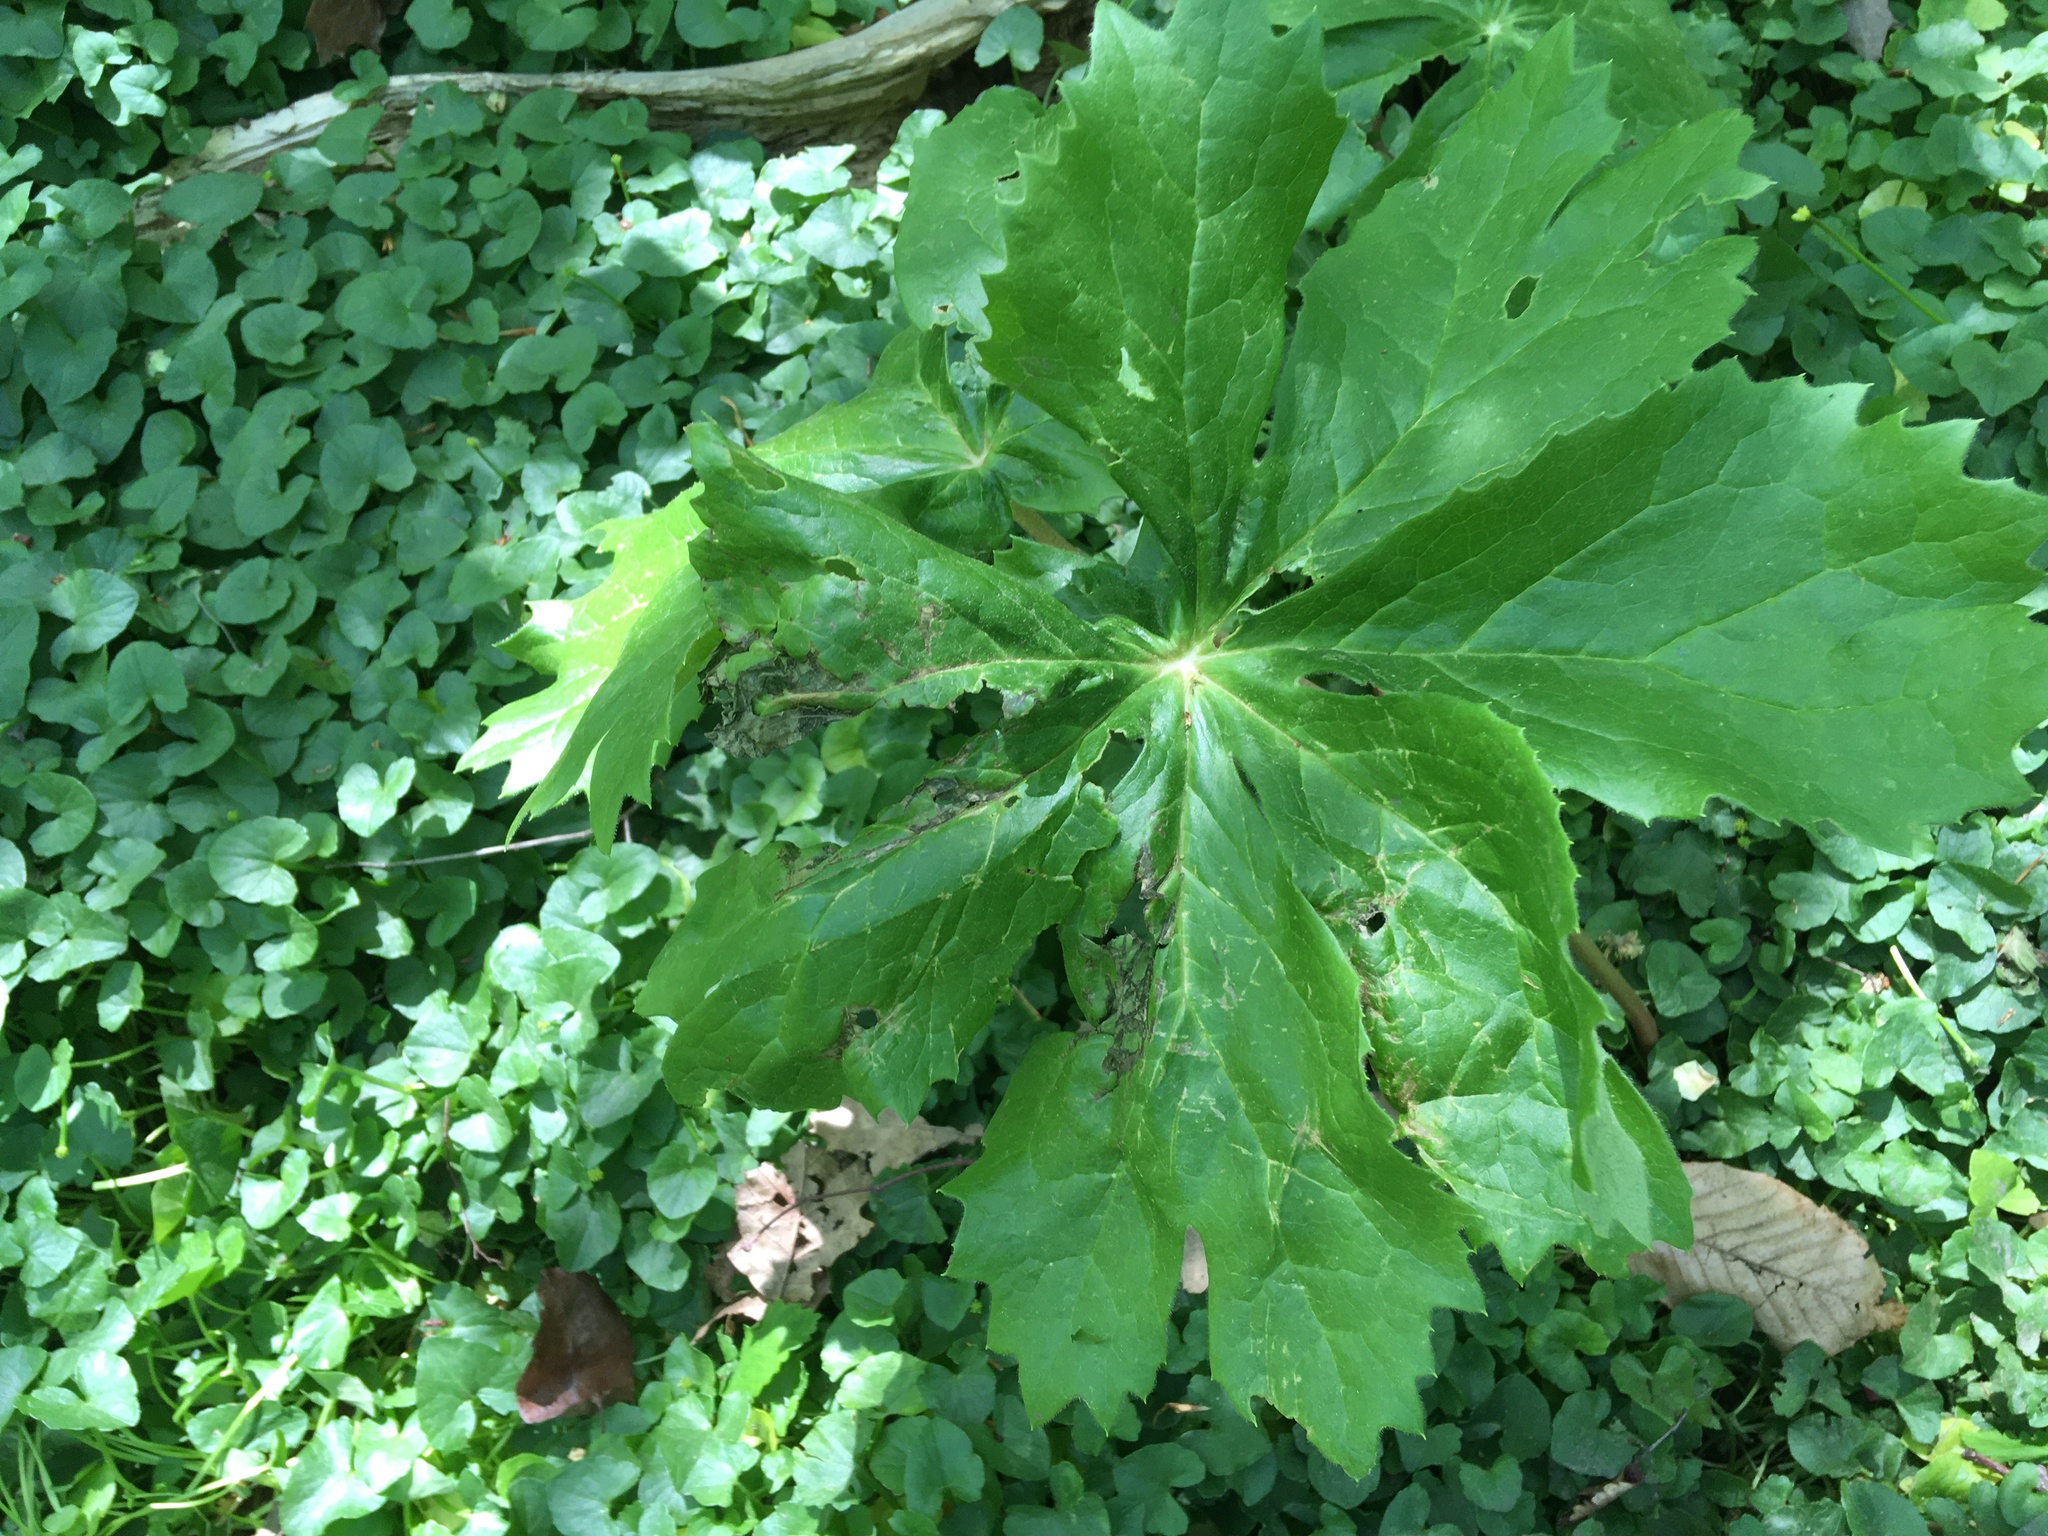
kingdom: Plantae
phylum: Tracheophyta
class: Magnoliopsida
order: Ranunculales
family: Berberidaceae
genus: Podophyllum
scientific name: Podophyllum peltatum
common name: Wild mandrake
